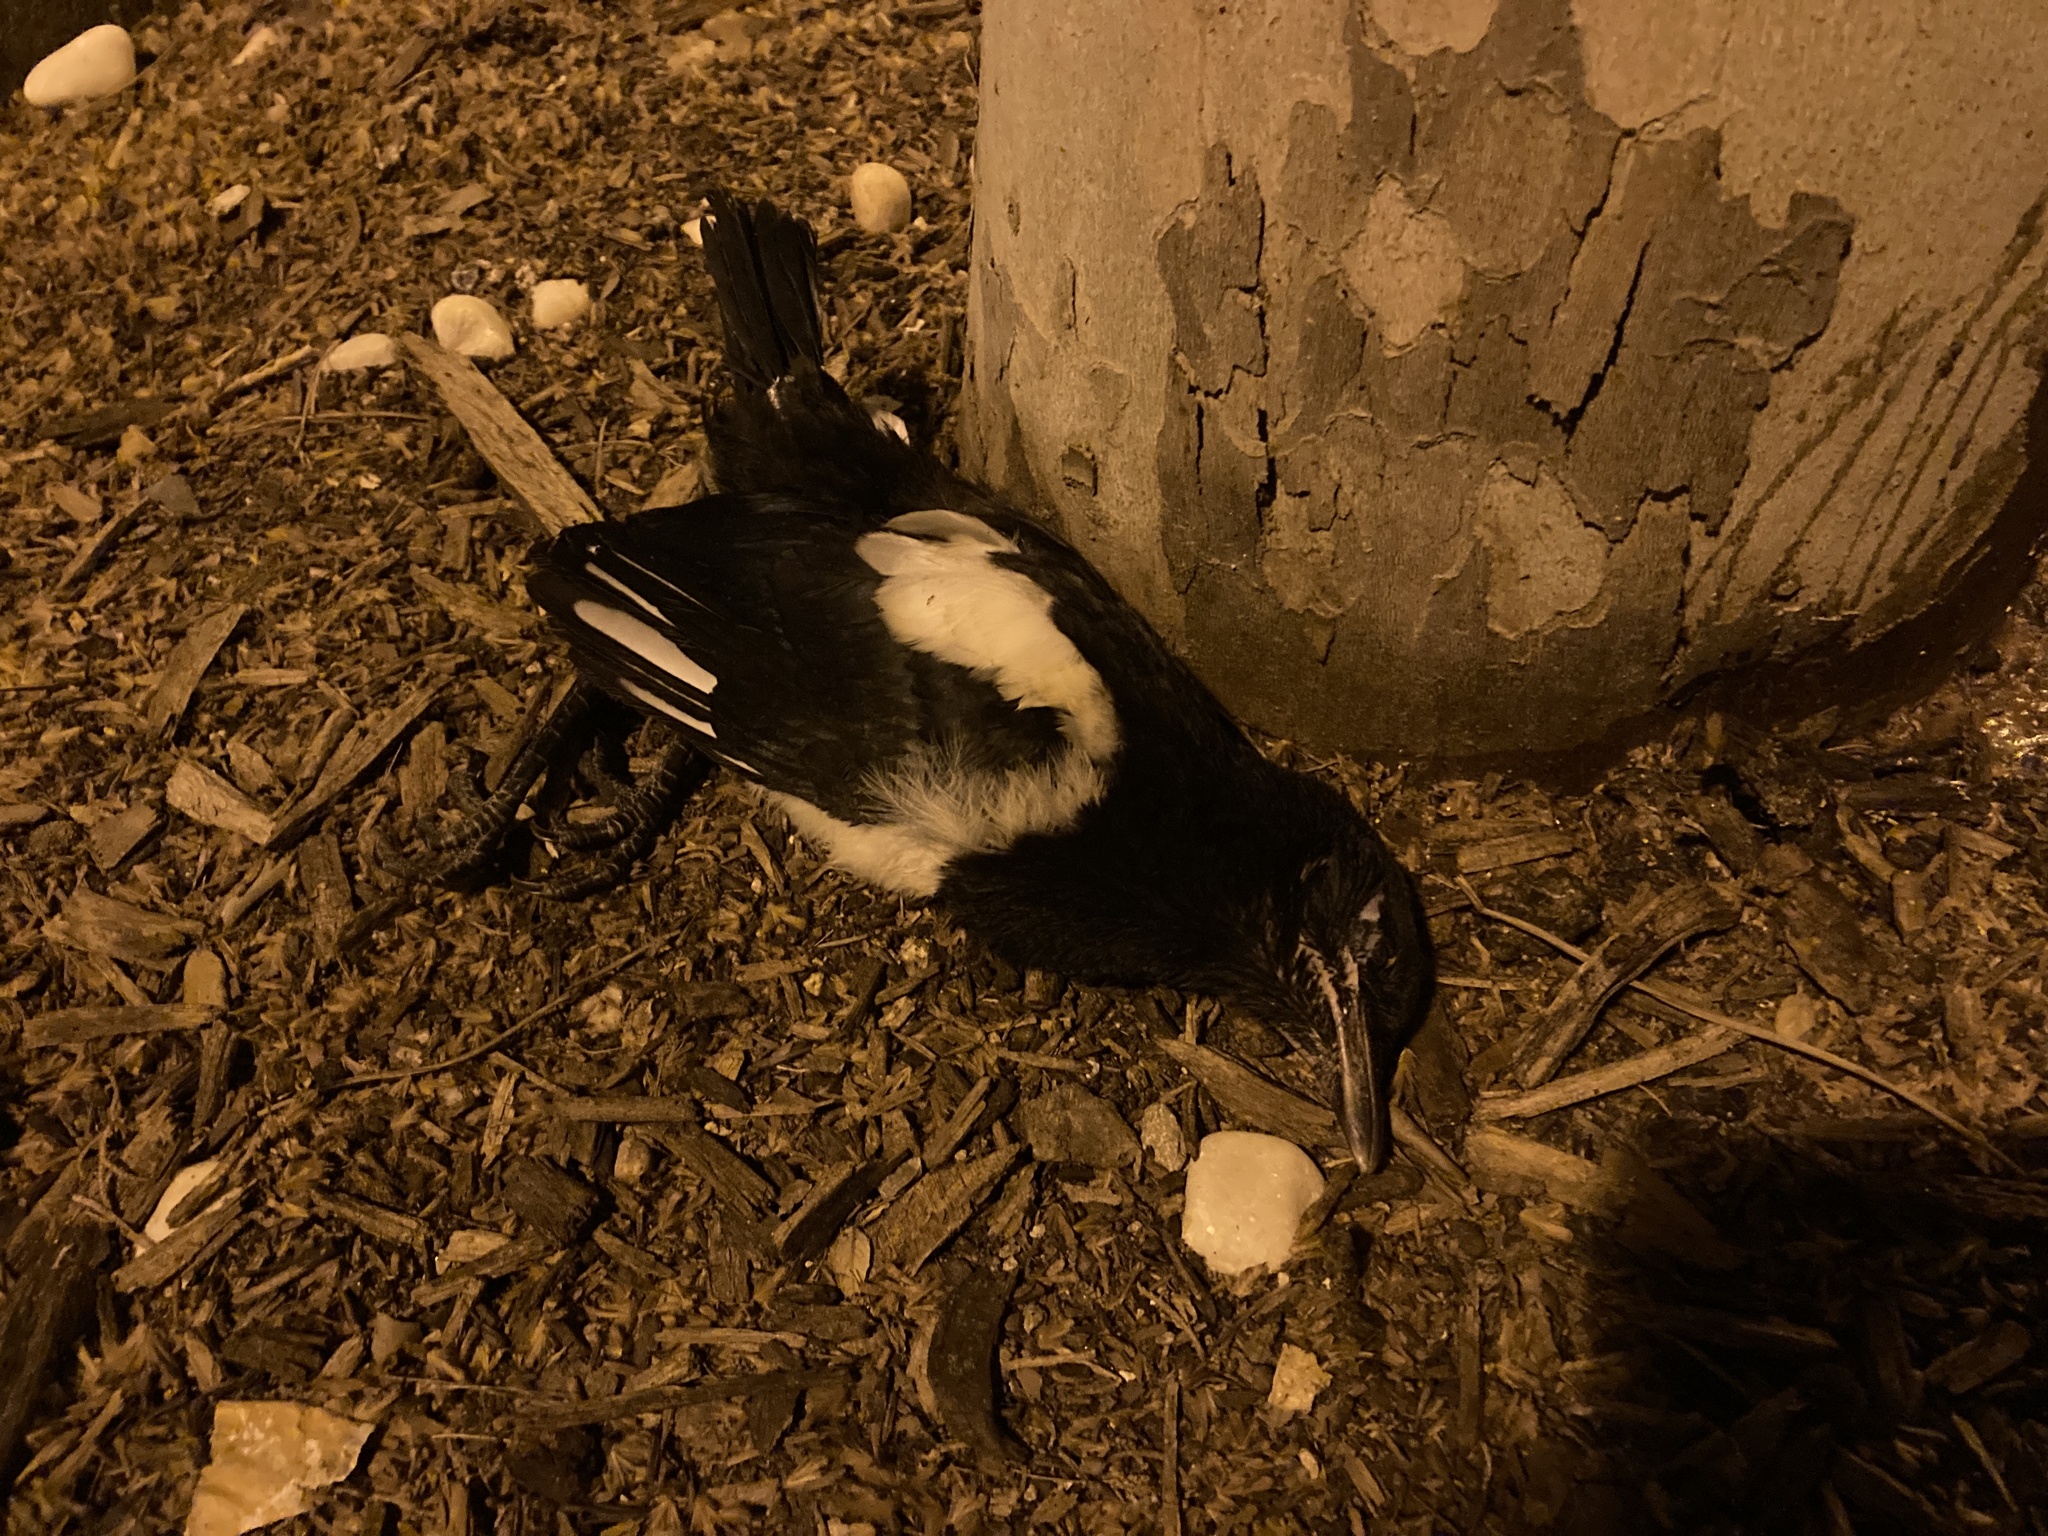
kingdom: Animalia
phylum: Chordata
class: Aves
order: Passeriformes
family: Corvidae
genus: Pica
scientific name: Pica pica
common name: Eurasian magpie
